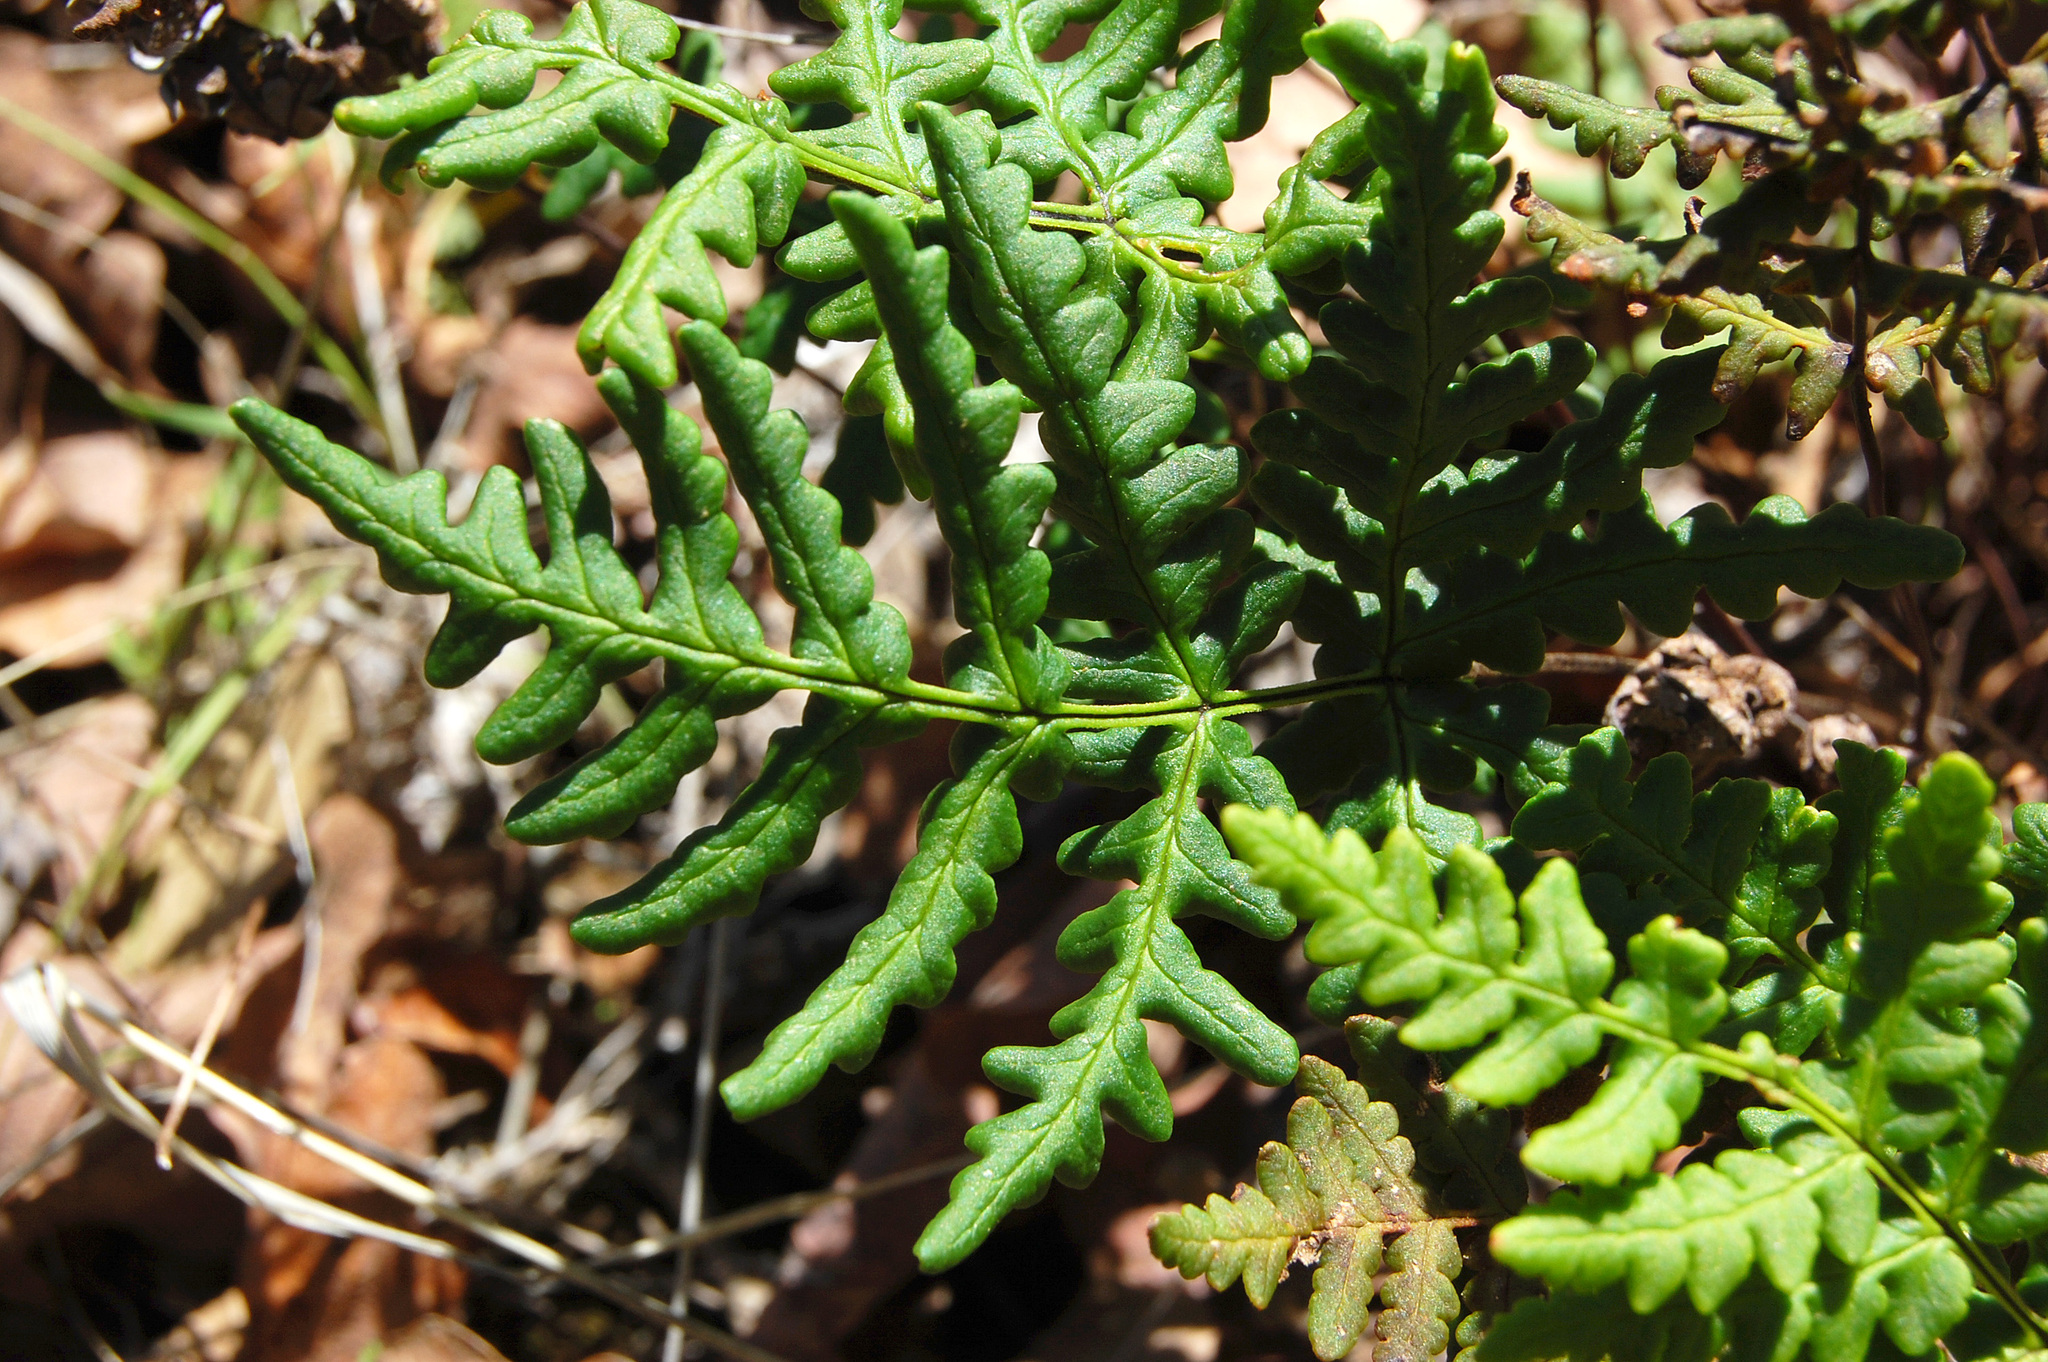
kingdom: Plantae
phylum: Tracheophyta
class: Polypodiopsida
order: Polypodiales
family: Pteridaceae
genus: Pentagramma
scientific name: Pentagramma triangularis
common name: Gold fern
